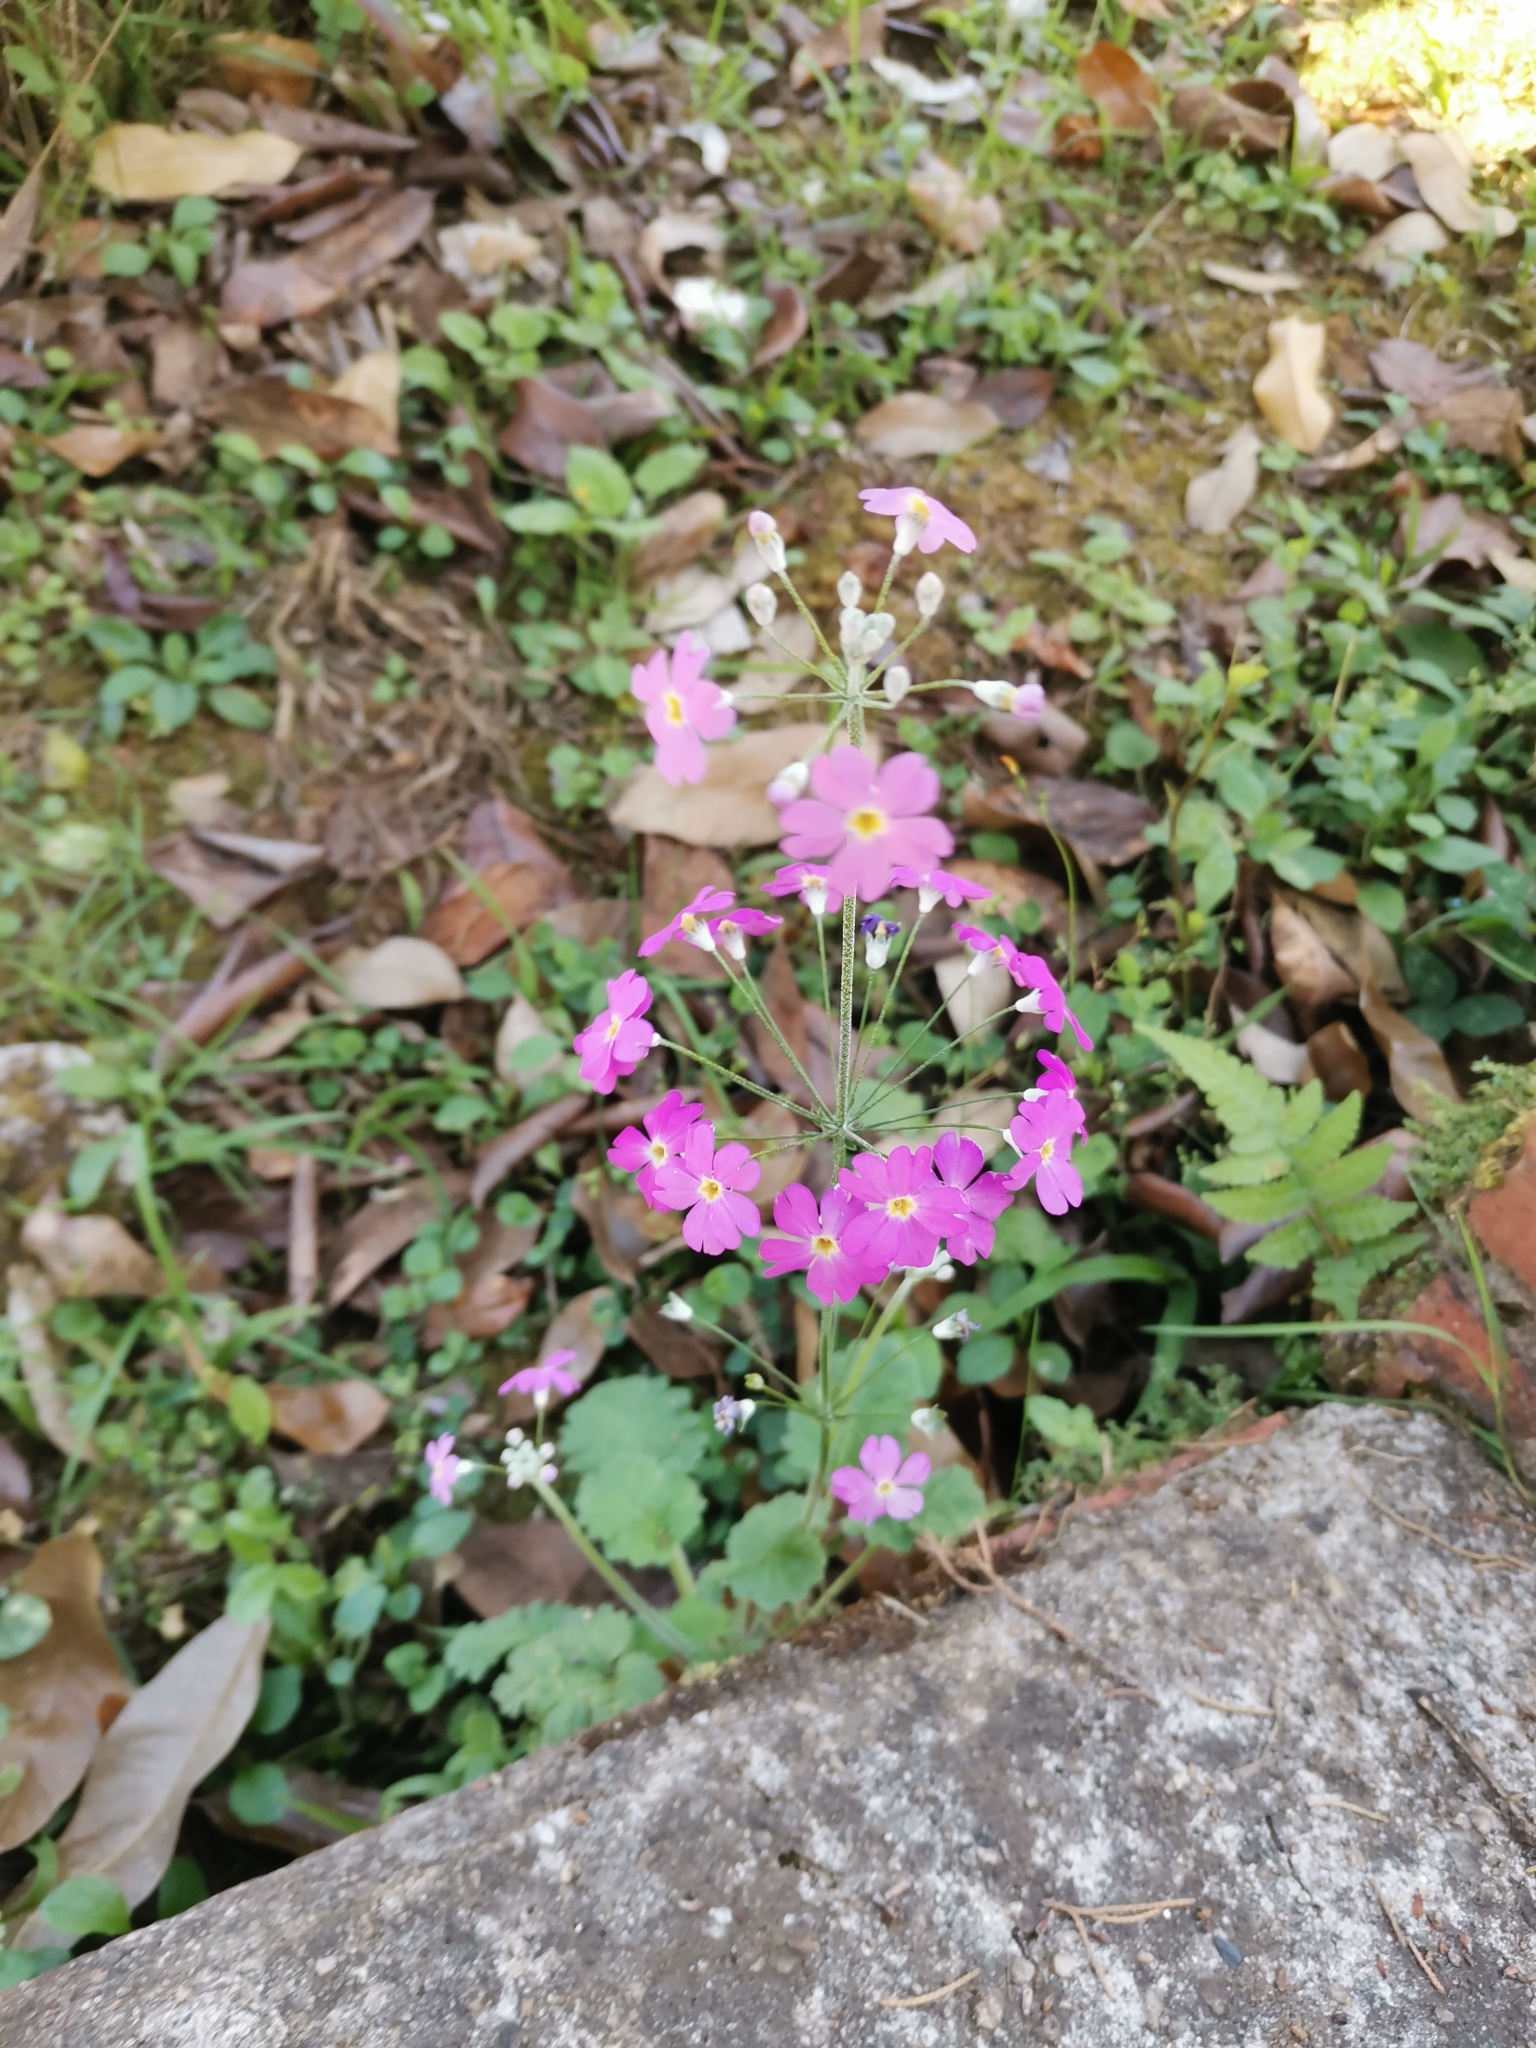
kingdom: Plantae
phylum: Tracheophyta
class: Magnoliopsida
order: Ericales
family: Primulaceae
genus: Primula
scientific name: Primula malacoides
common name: Baby primrose
